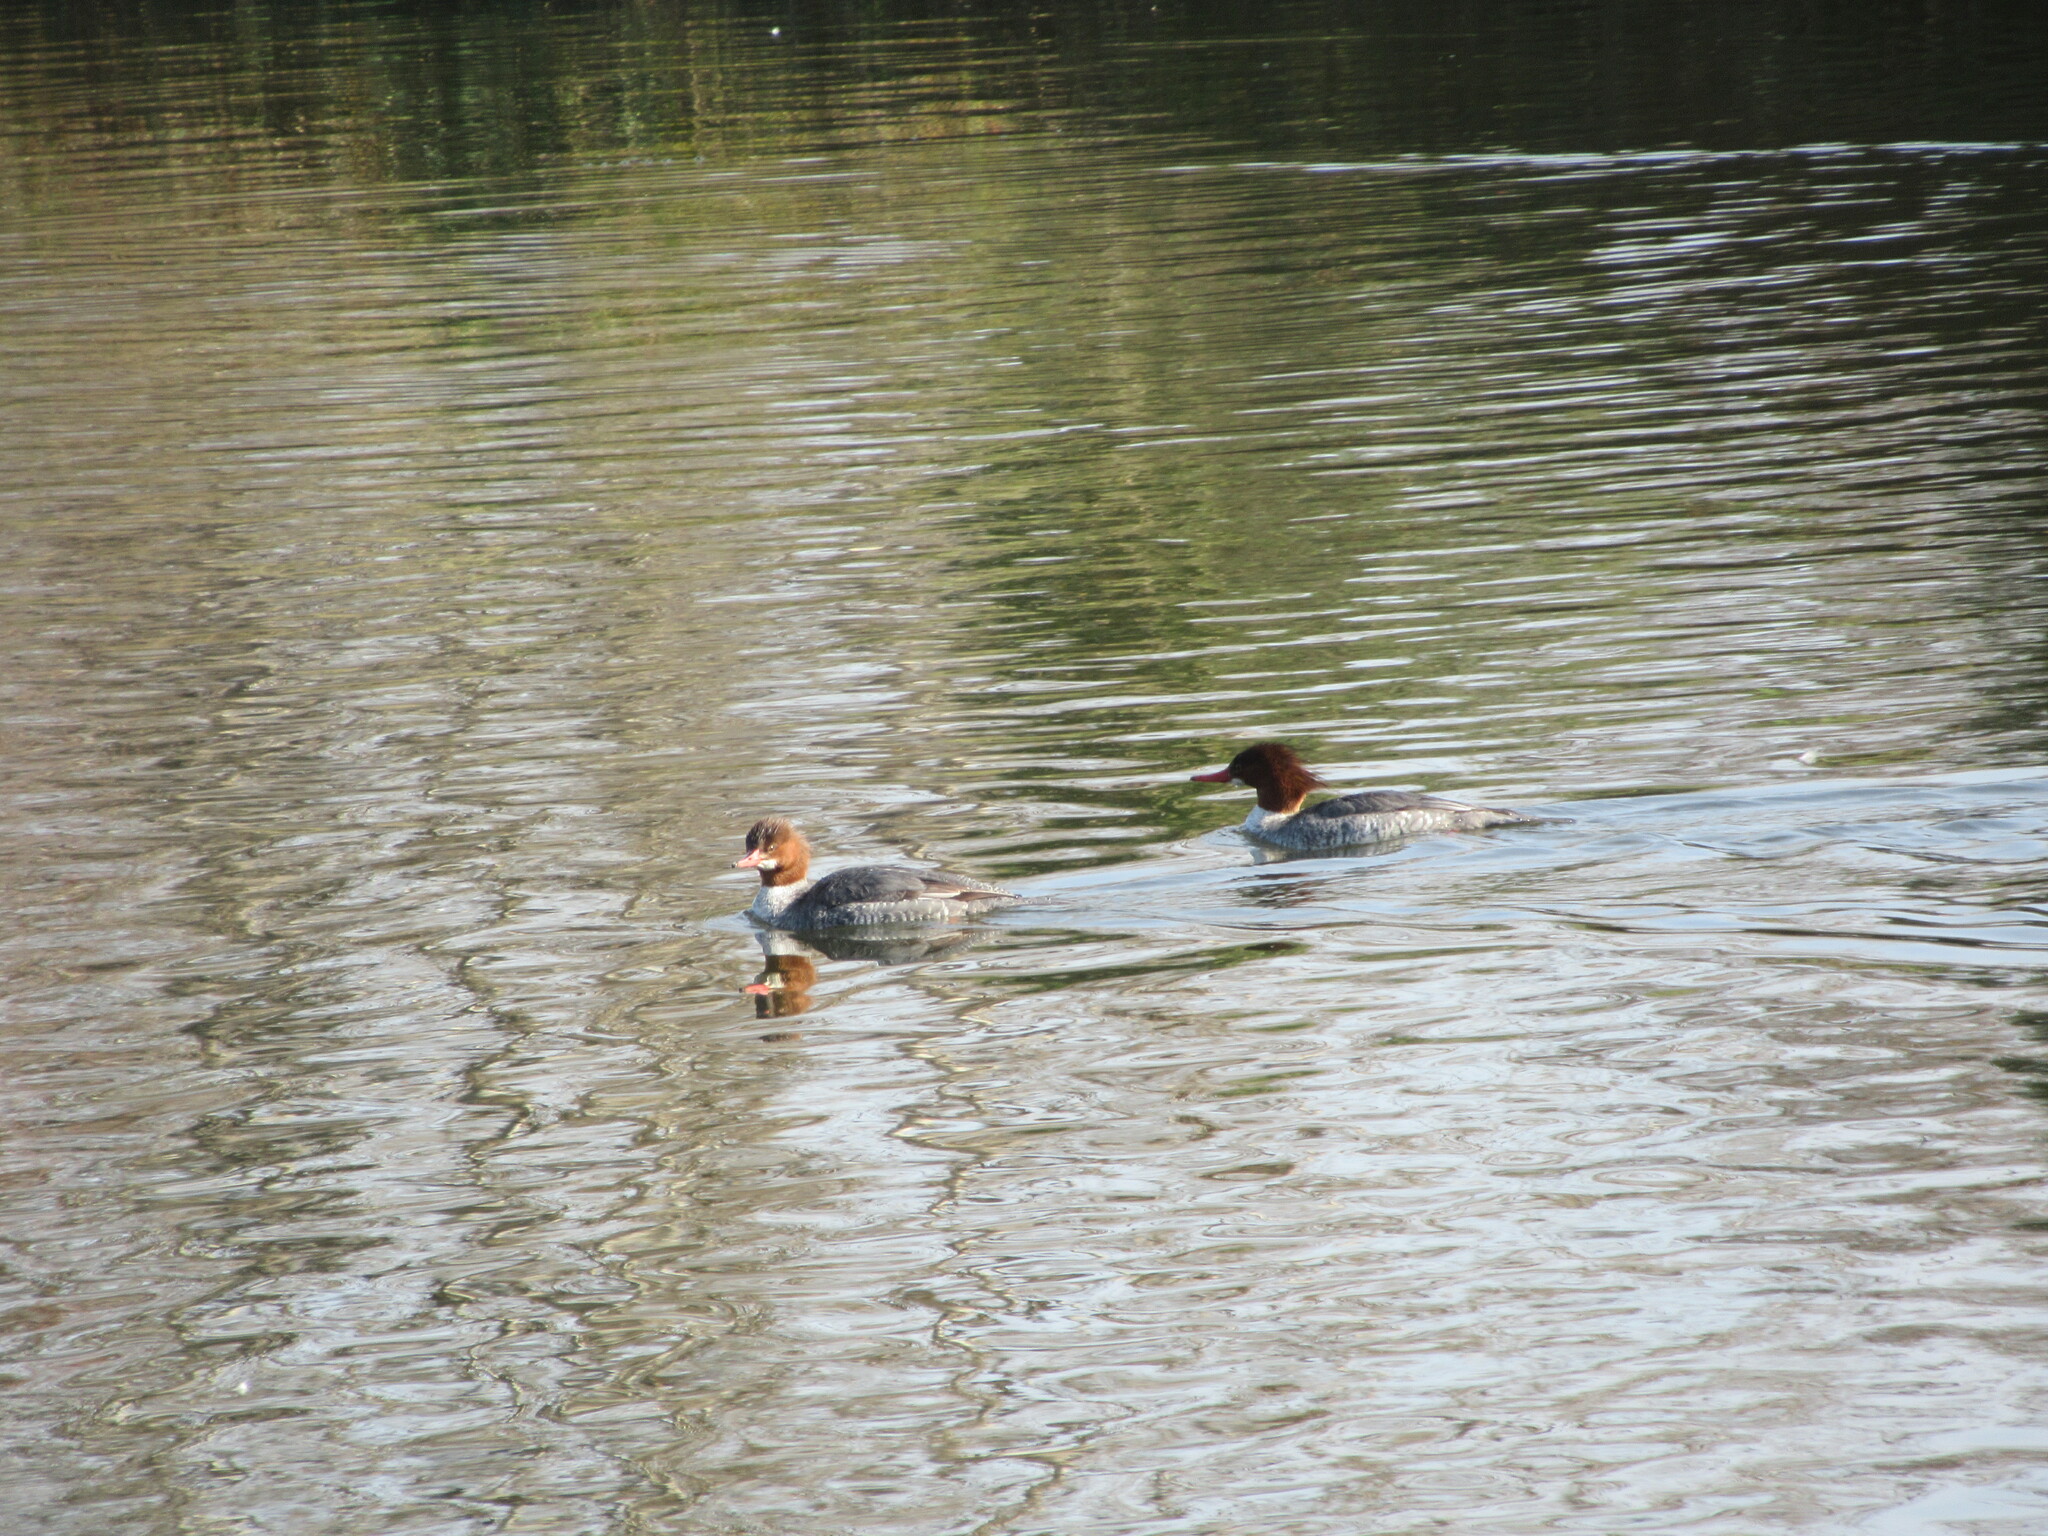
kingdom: Animalia
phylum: Chordata
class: Aves
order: Anseriformes
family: Anatidae
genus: Mergus
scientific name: Mergus merganser
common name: Common merganser
